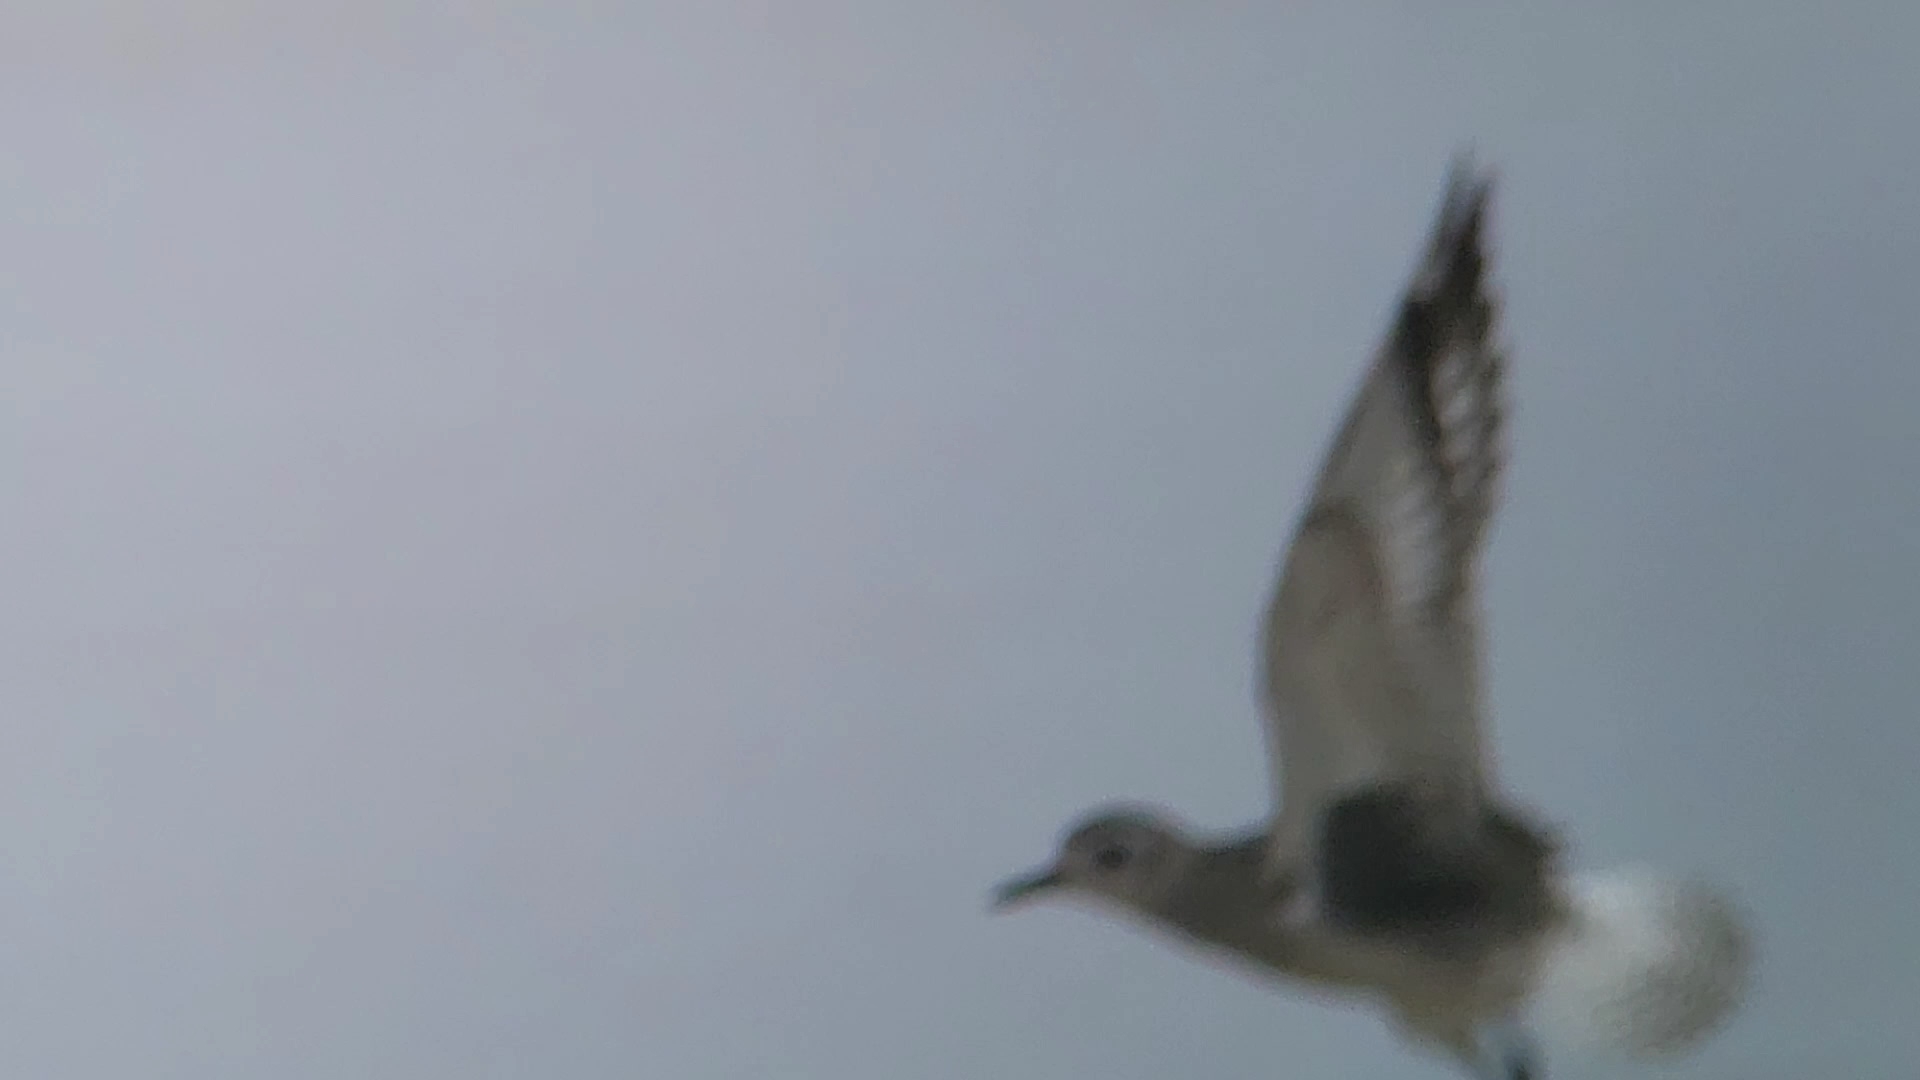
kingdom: Animalia
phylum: Chordata
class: Aves
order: Charadriiformes
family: Charadriidae
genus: Pluvialis
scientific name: Pluvialis squatarola
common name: Grey plover
